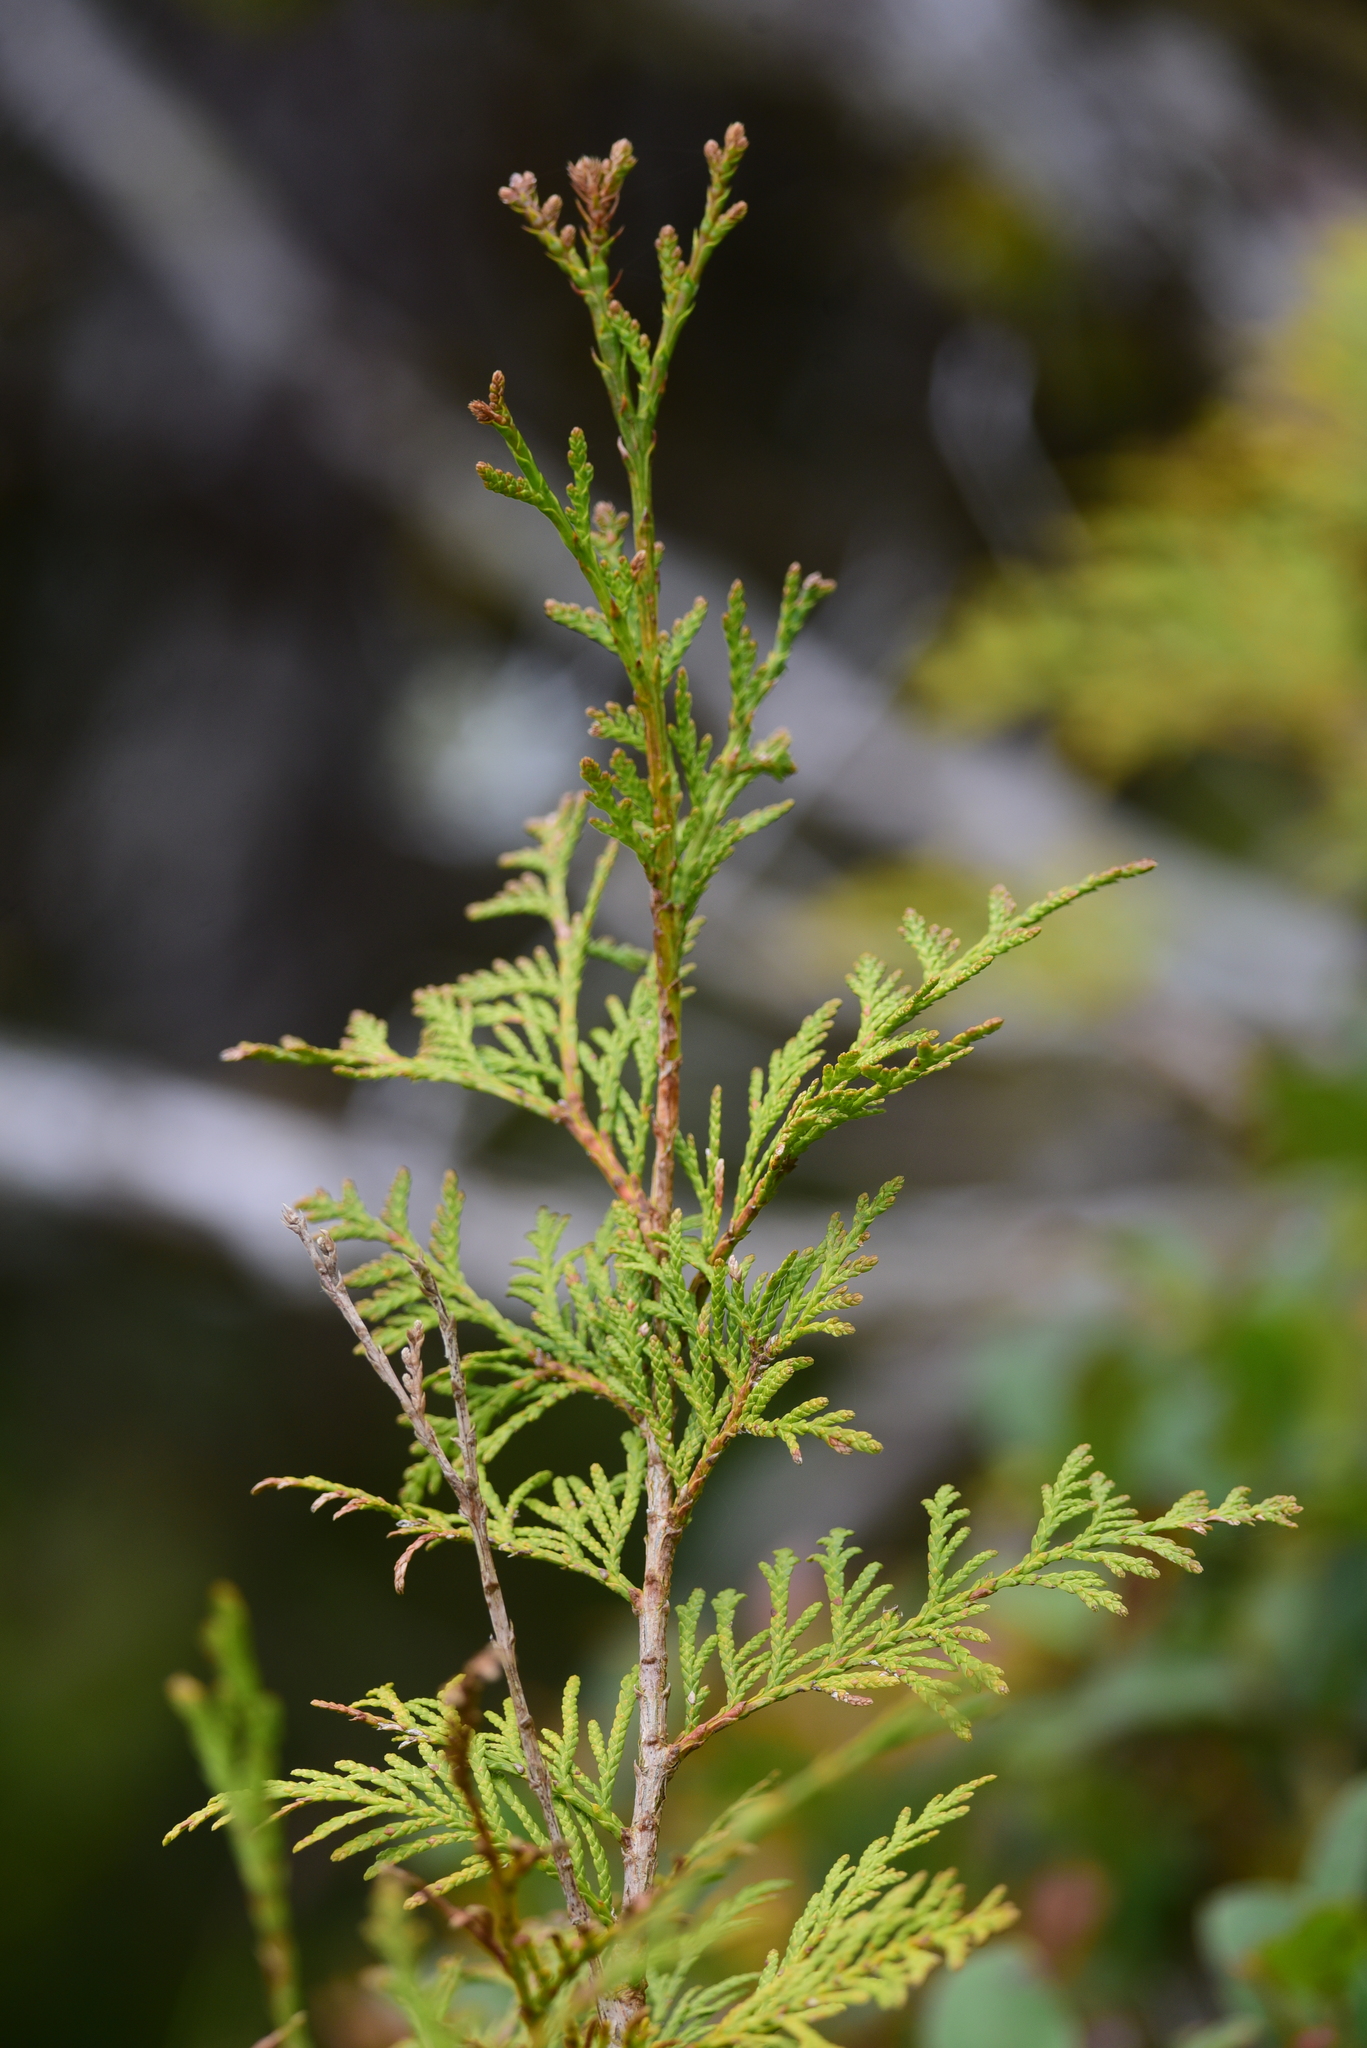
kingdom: Plantae
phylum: Tracheophyta
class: Pinopsida
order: Pinales
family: Cupressaceae
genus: Thuja
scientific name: Thuja plicata
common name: Western red-cedar
